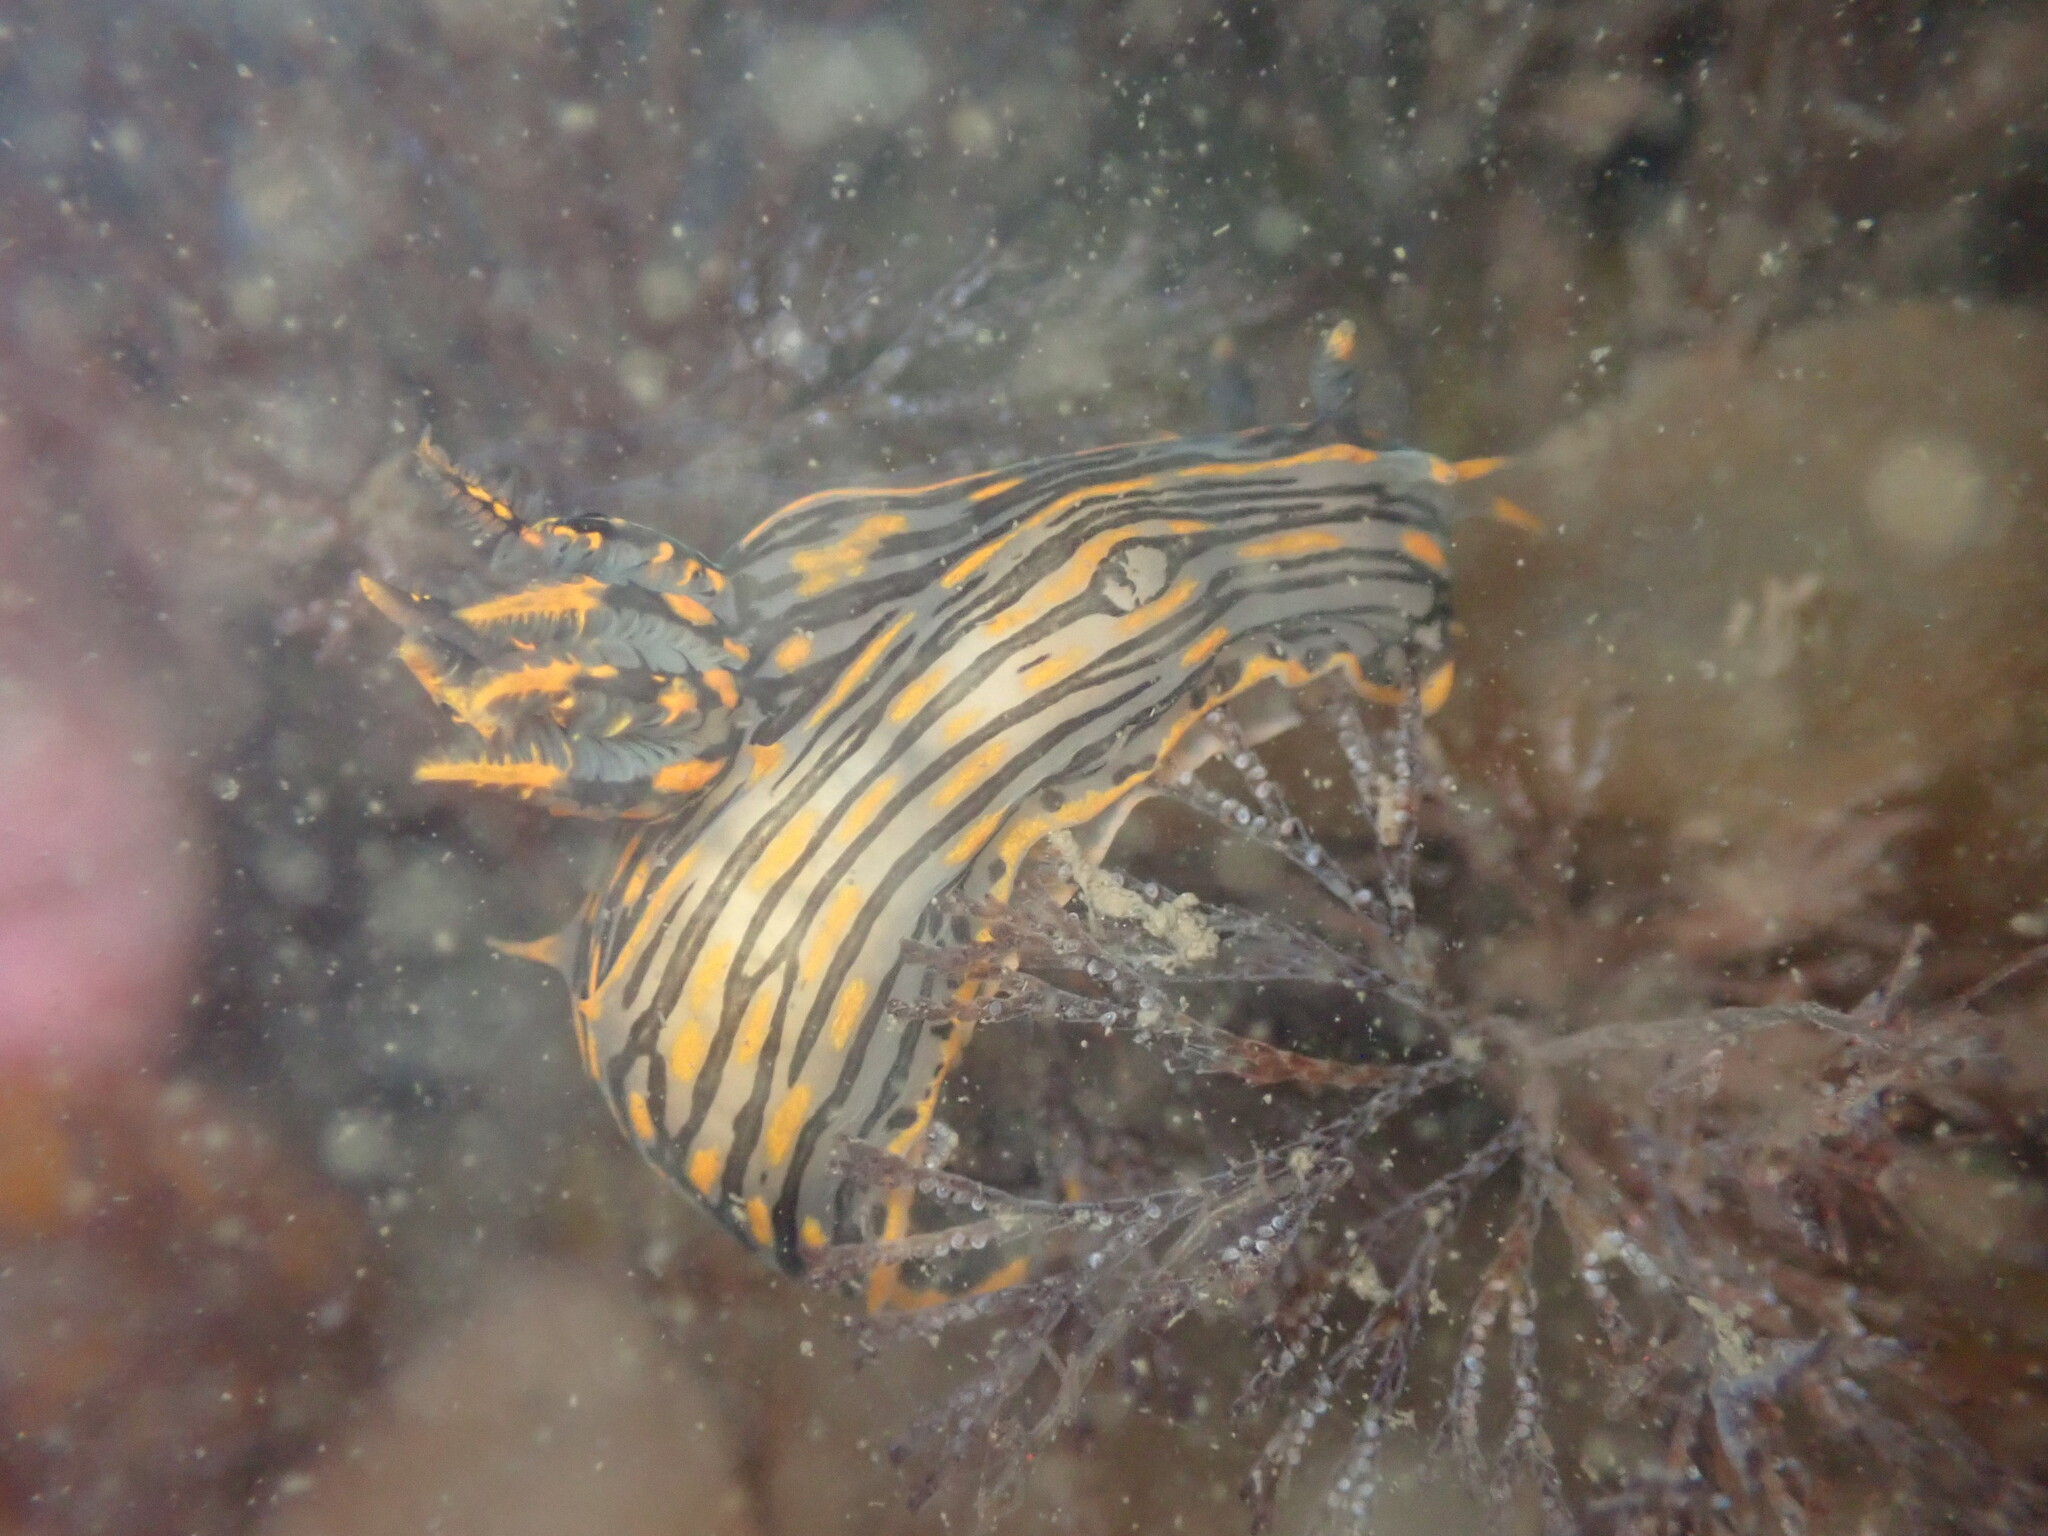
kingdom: Animalia
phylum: Mollusca
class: Gastropoda
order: Nudibranchia
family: Polyceridae
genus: Polycera
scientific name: Polycera atra
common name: Orange-spike polycera
